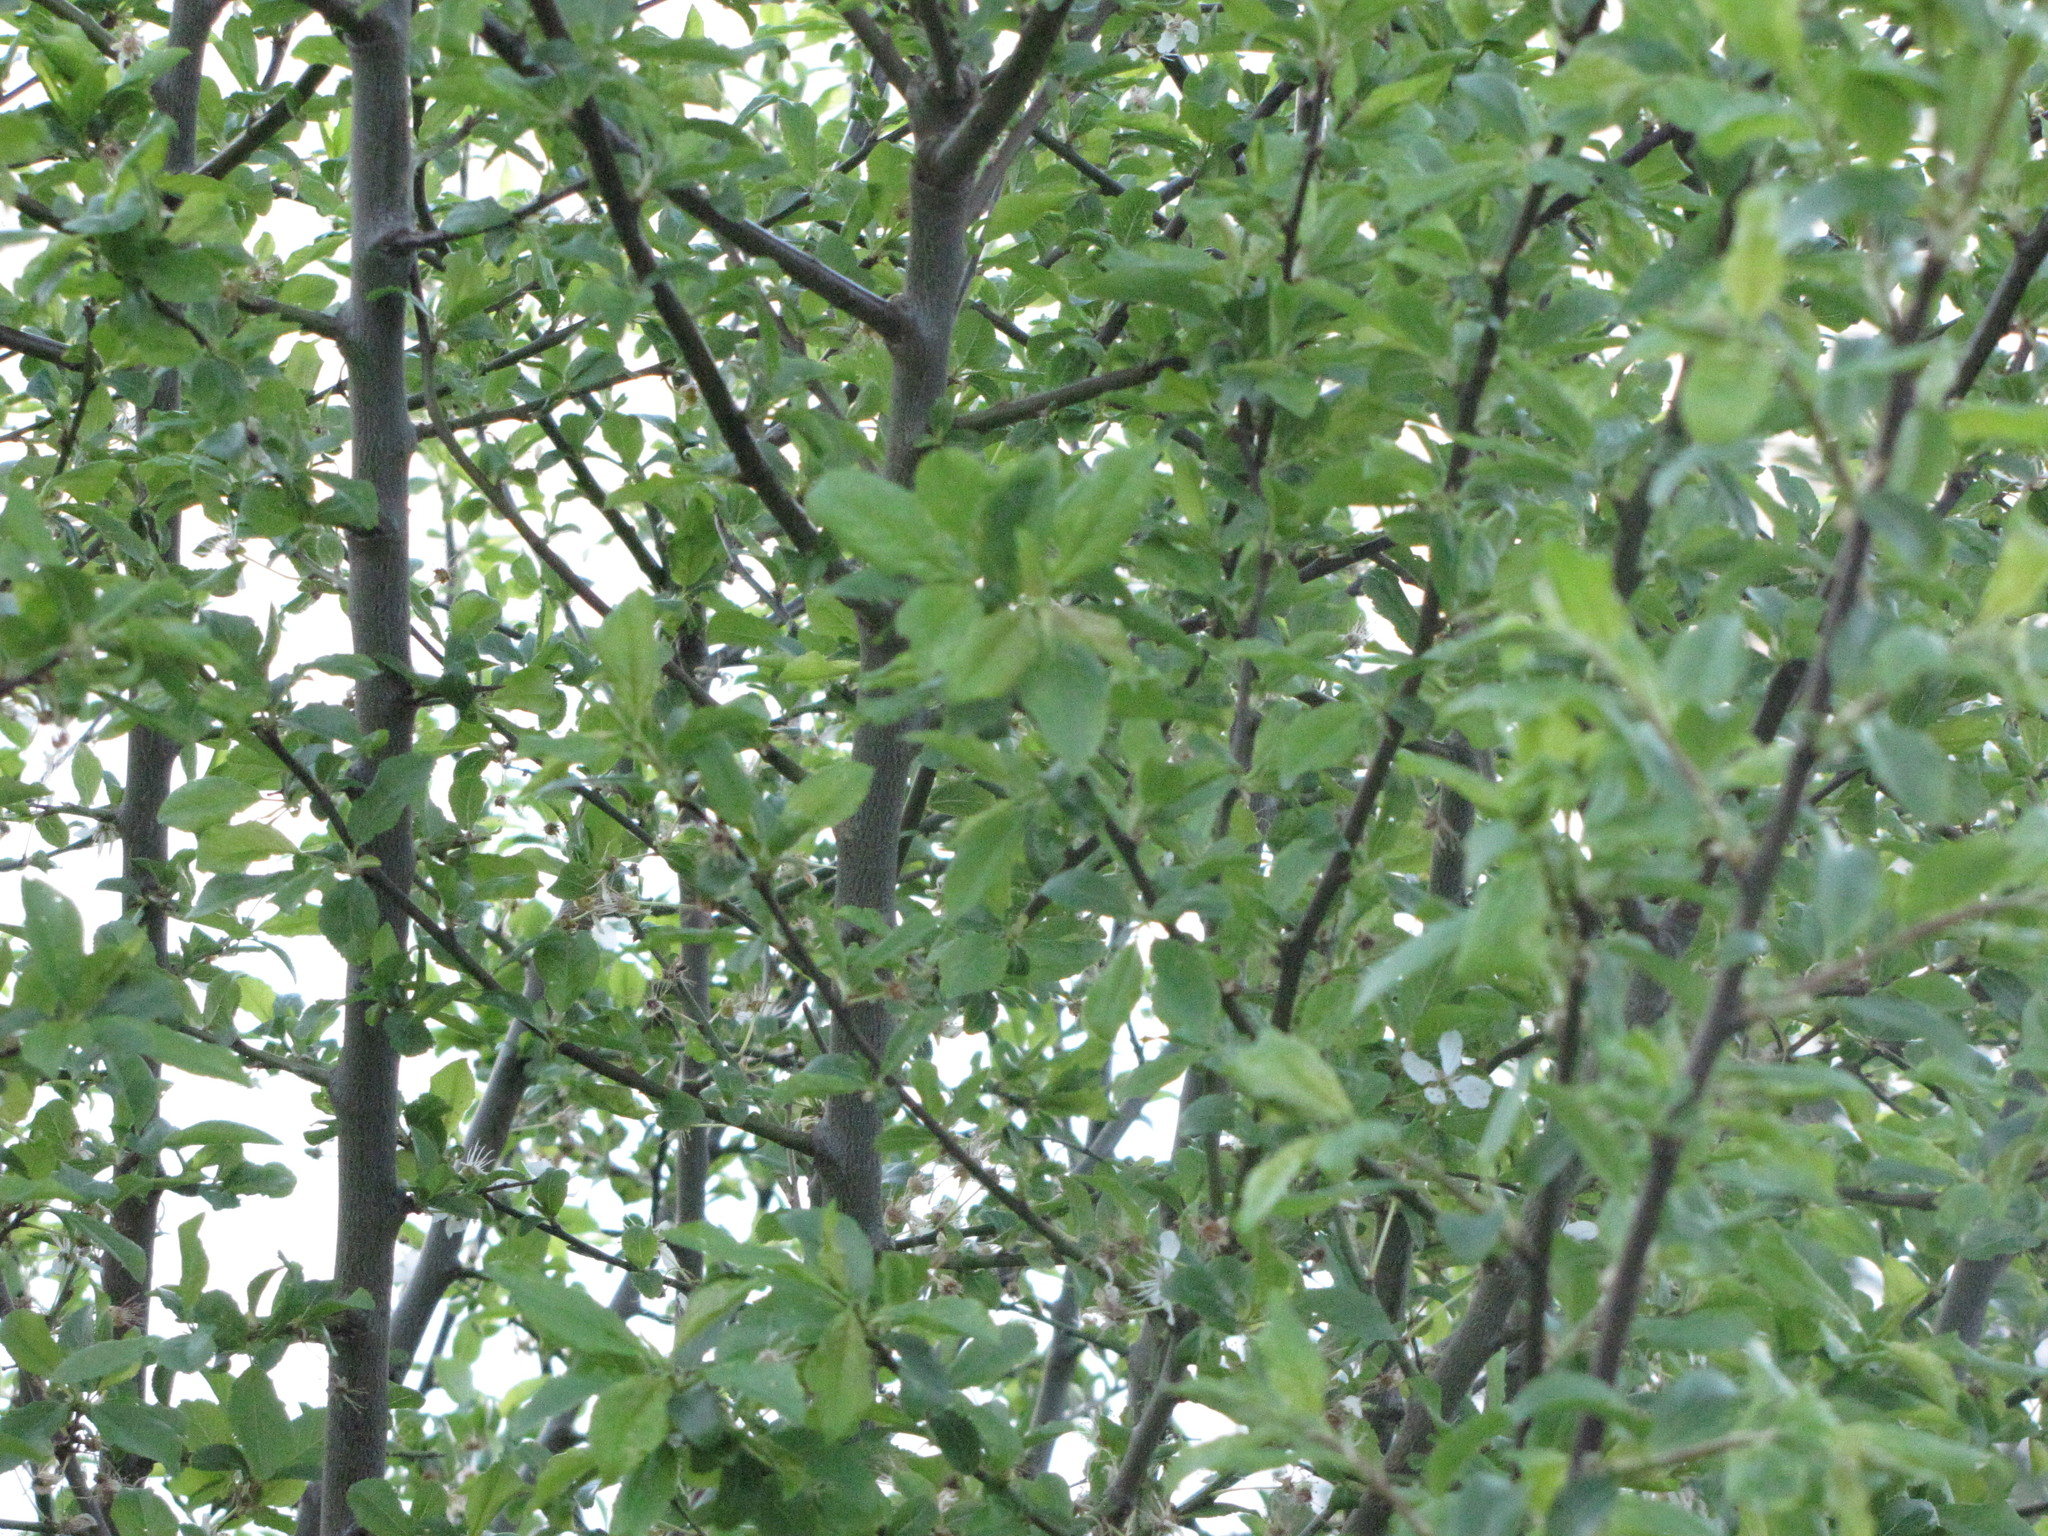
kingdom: Plantae
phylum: Tracheophyta
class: Magnoliopsida
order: Rosales
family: Rosaceae
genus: Oemleria
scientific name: Oemleria cerasiformis
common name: Osoberry
